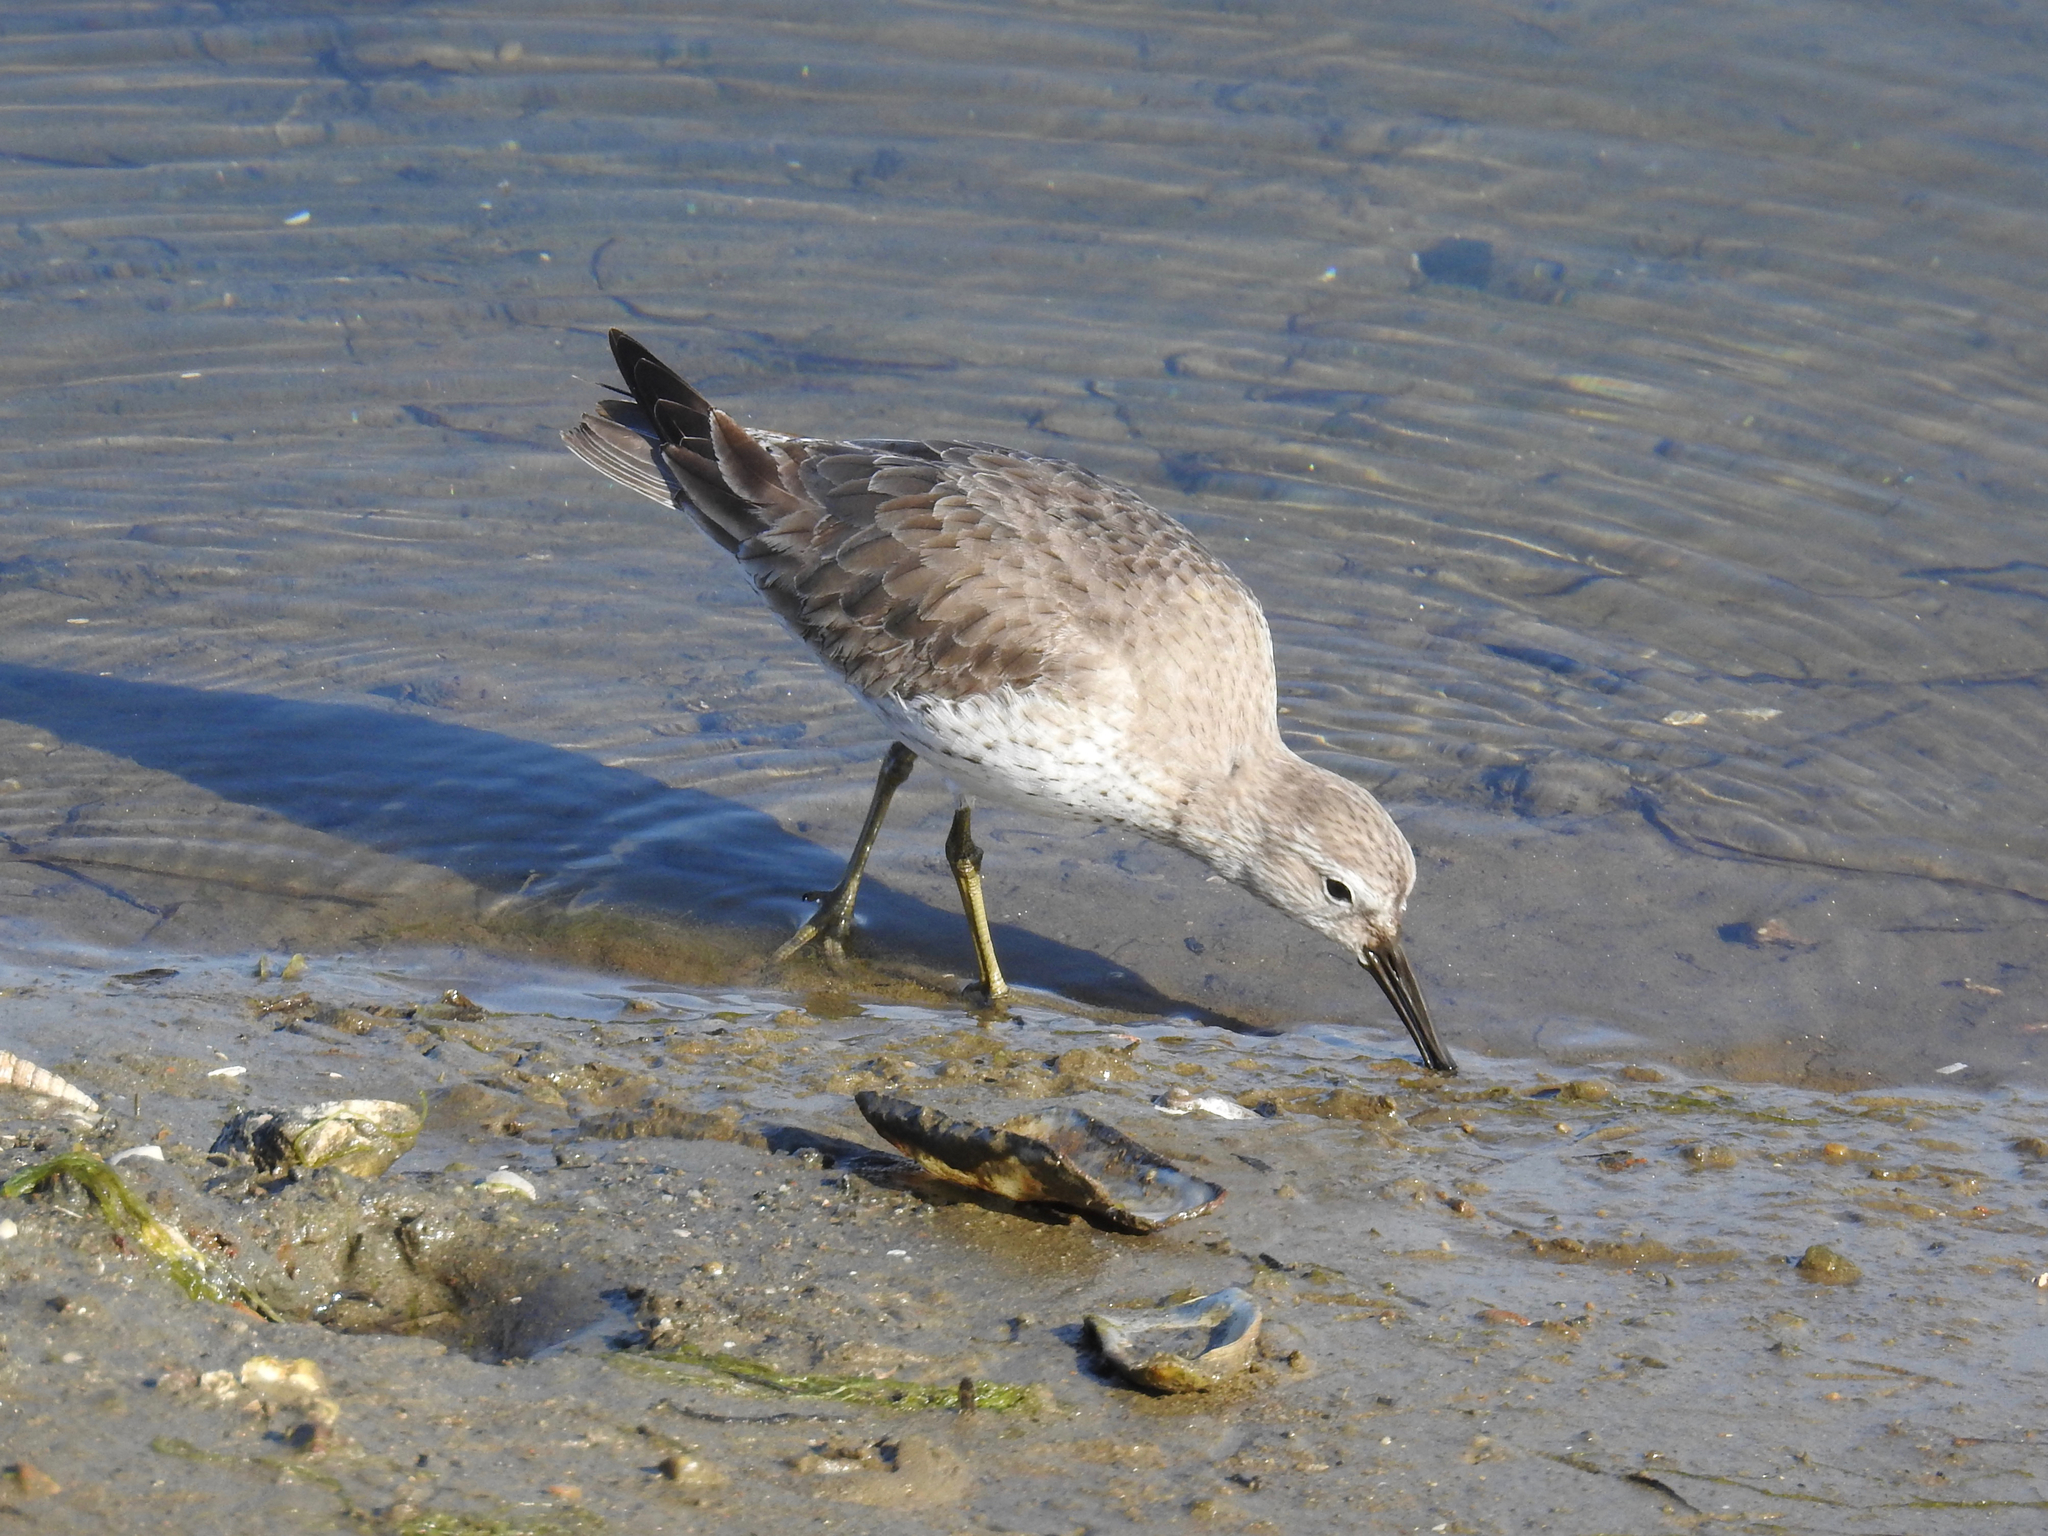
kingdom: Animalia
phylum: Chordata
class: Aves
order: Charadriiformes
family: Scolopacidae
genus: Calidris
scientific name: Calidris canutus
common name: Red knot
